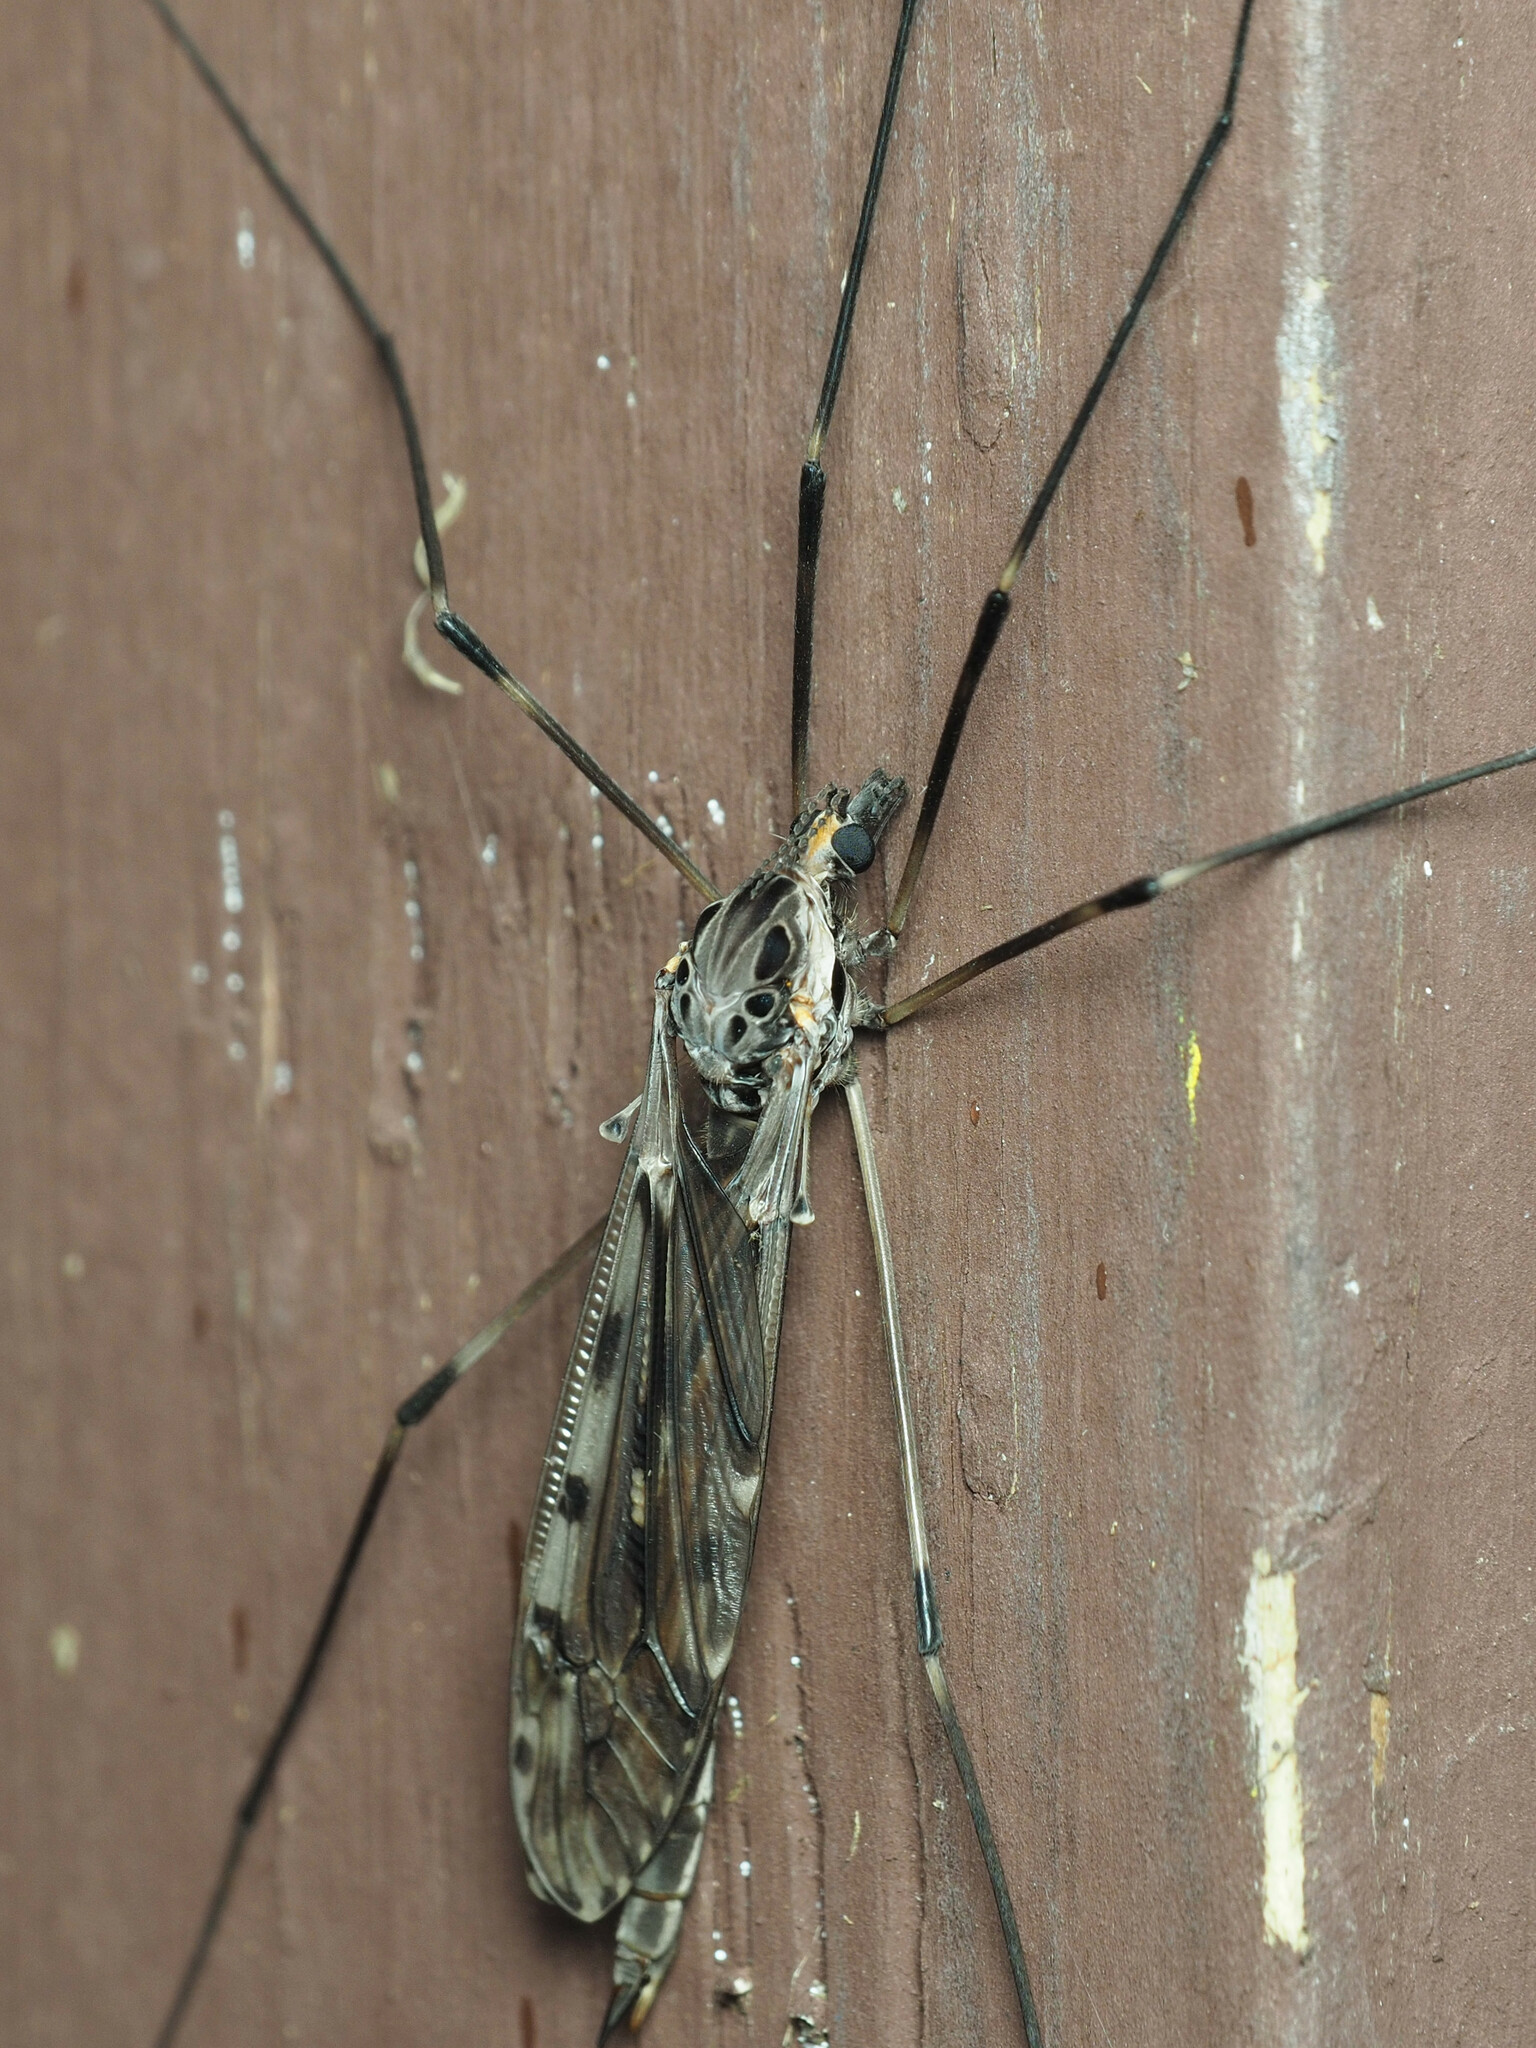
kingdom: Animalia
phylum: Arthropoda
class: Insecta
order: Diptera
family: Tipulidae
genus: Tipula
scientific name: Tipula abdominalis
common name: Giant crane fly
